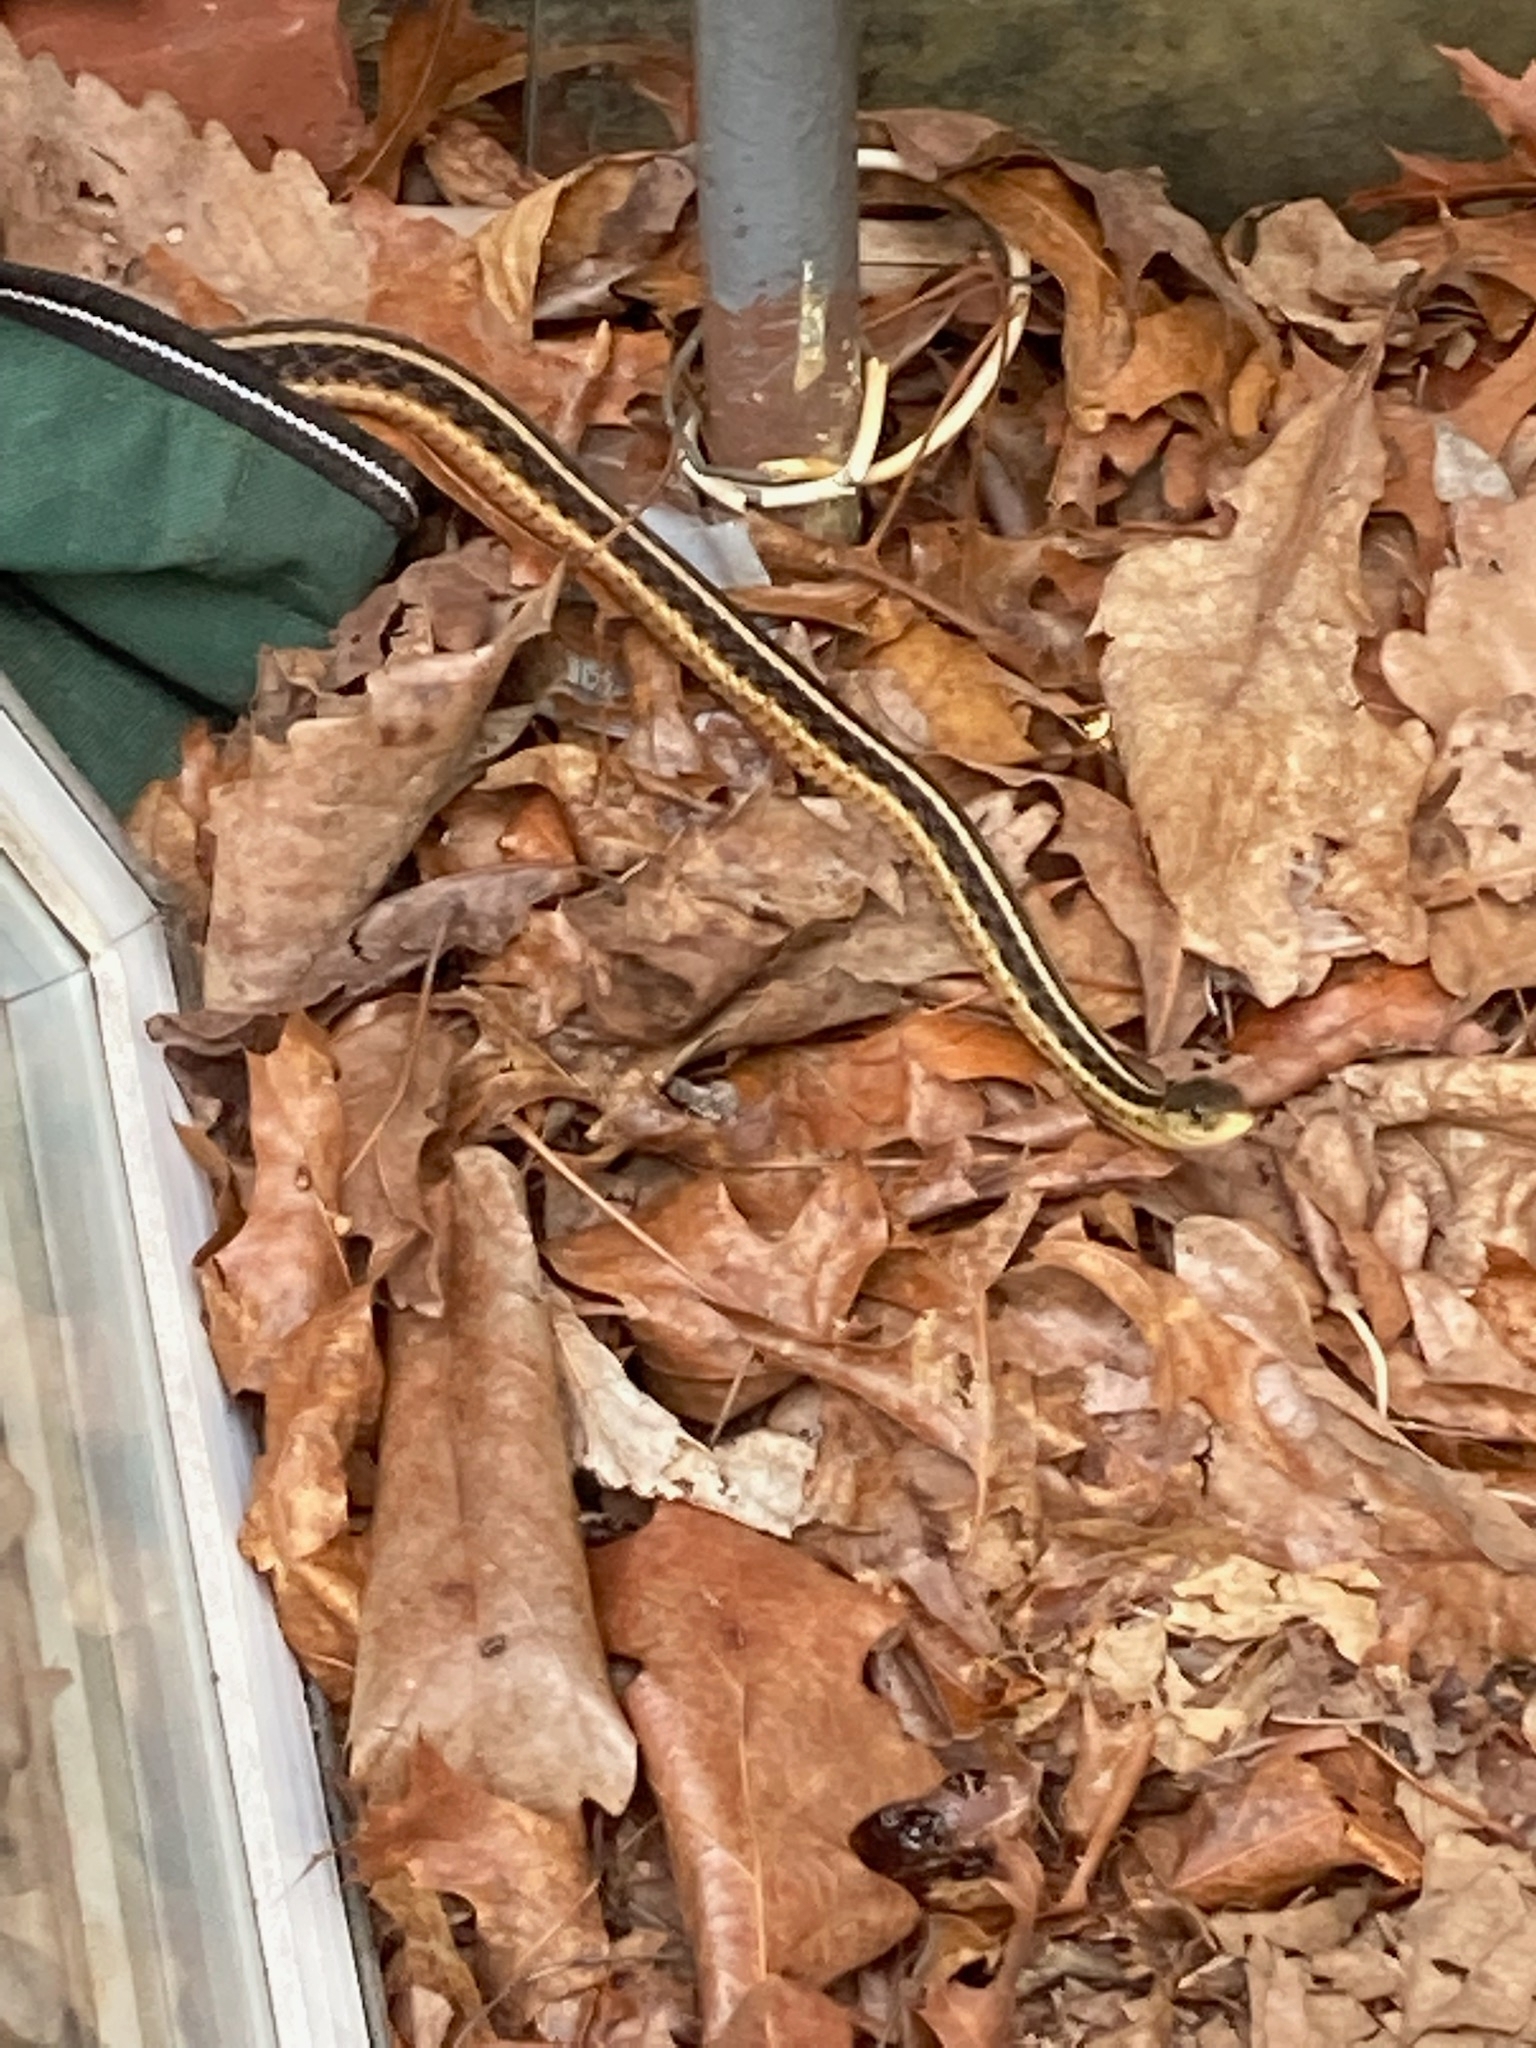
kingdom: Animalia
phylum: Chordata
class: Squamata
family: Colubridae
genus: Thamnophis
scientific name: Thamnophis sirtalis
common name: Common garter snake
